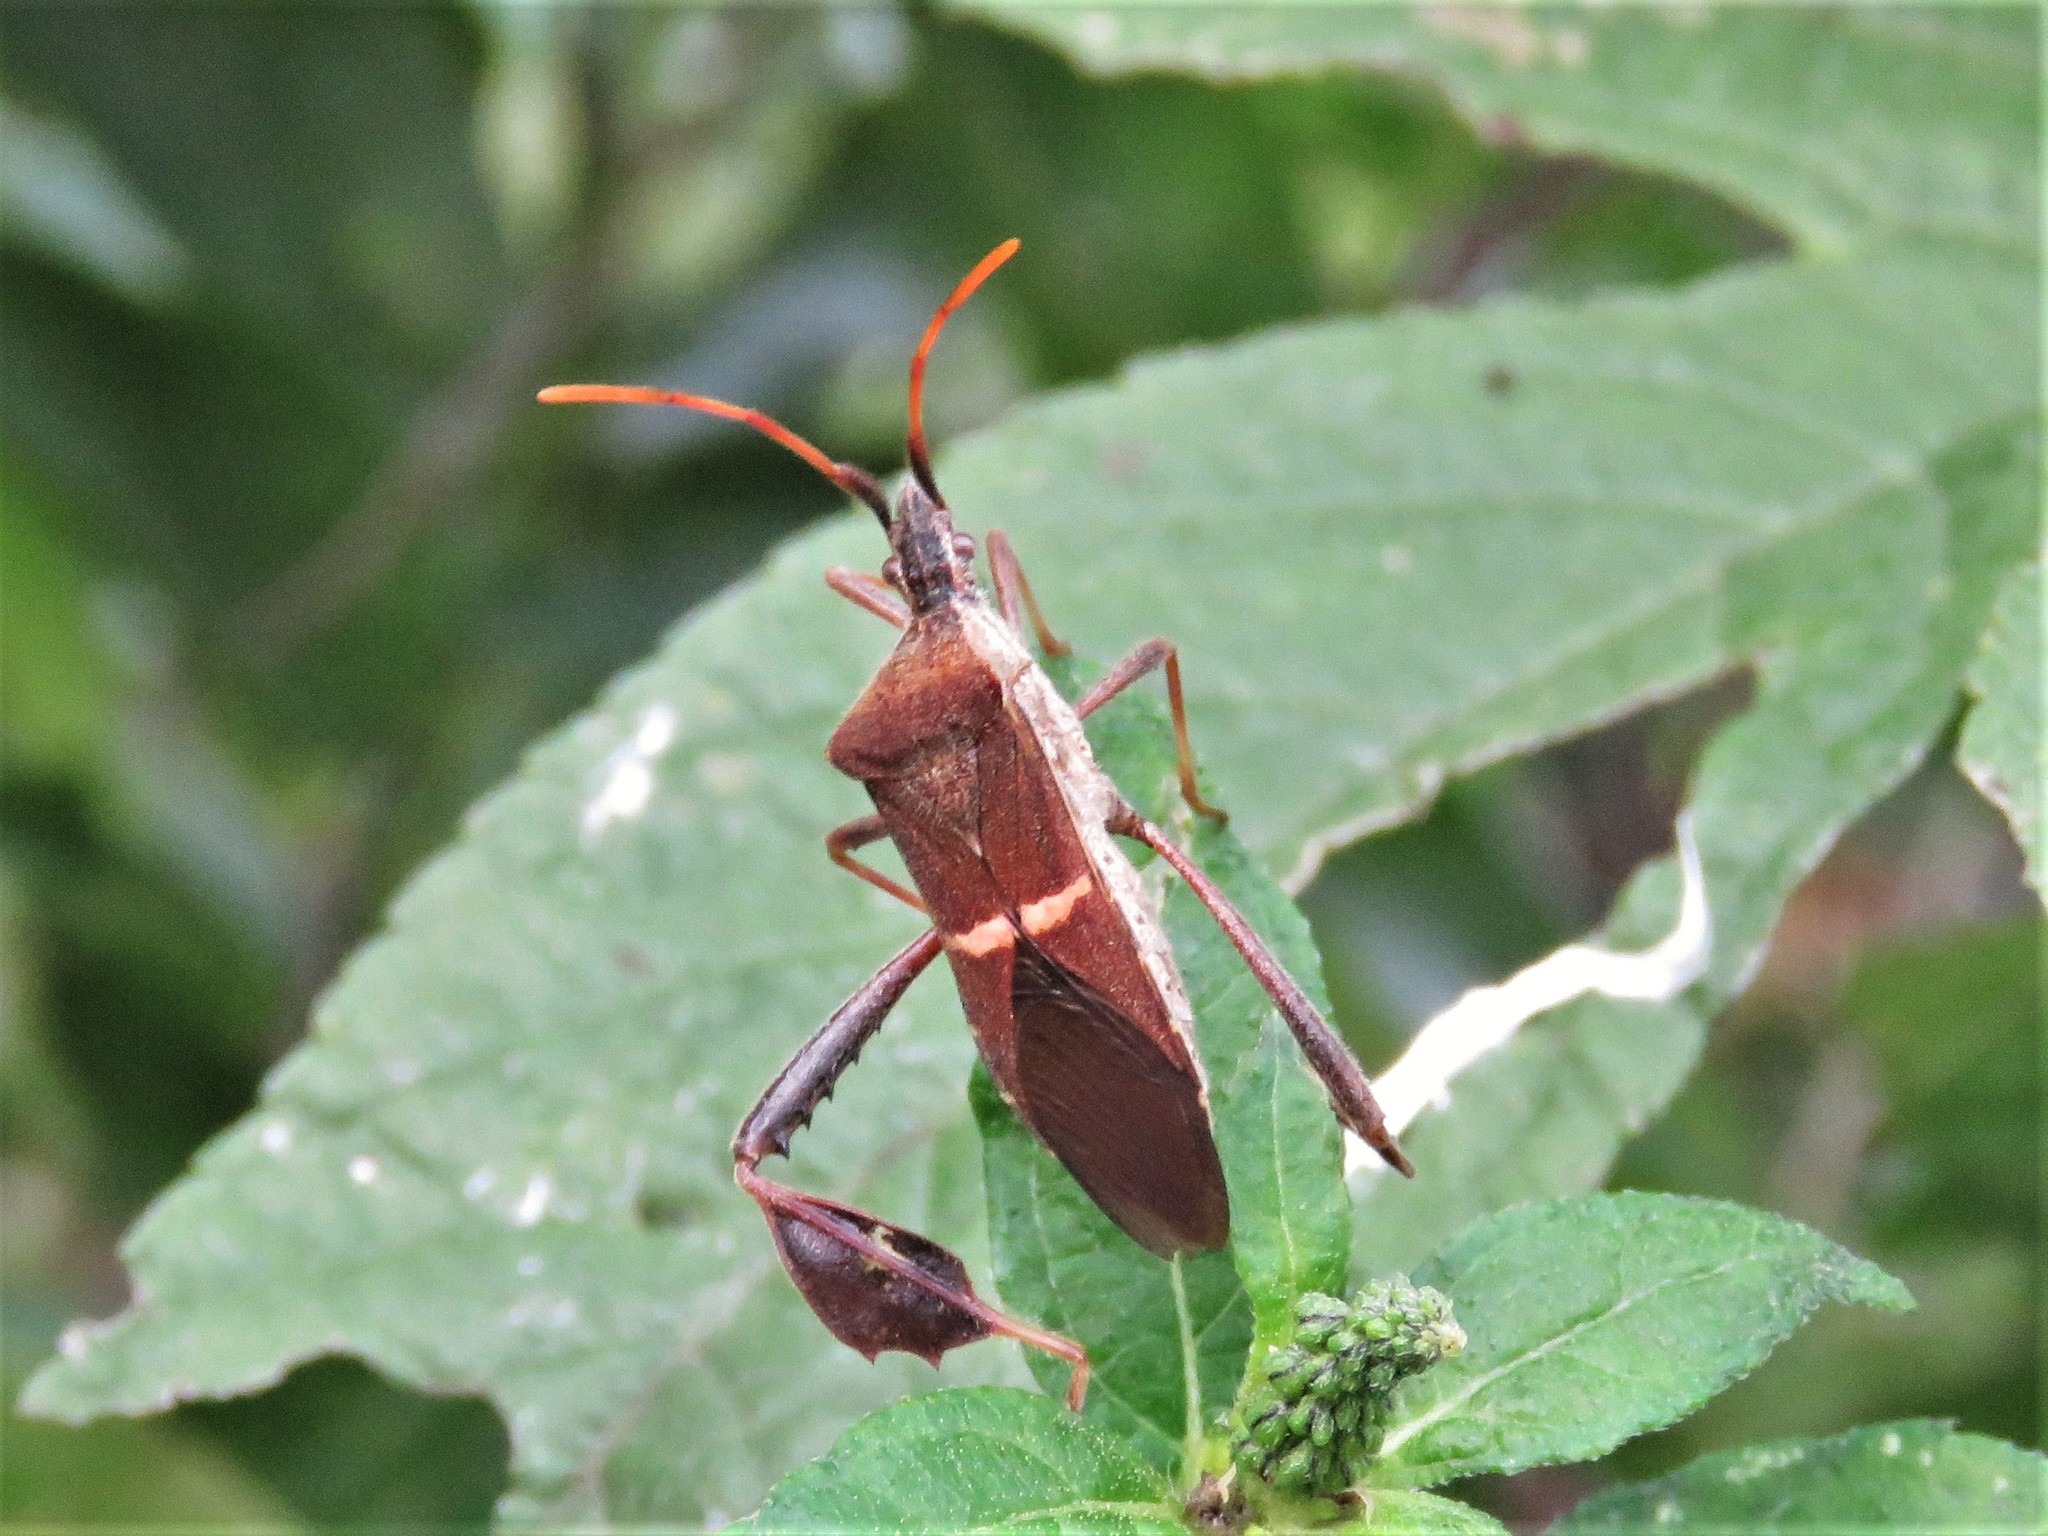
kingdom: Animalia
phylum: Arthropoda
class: Insecta
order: Hemiptera
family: Coreidae
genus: Leptoglossus
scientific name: Leptoglossus phyllopus
